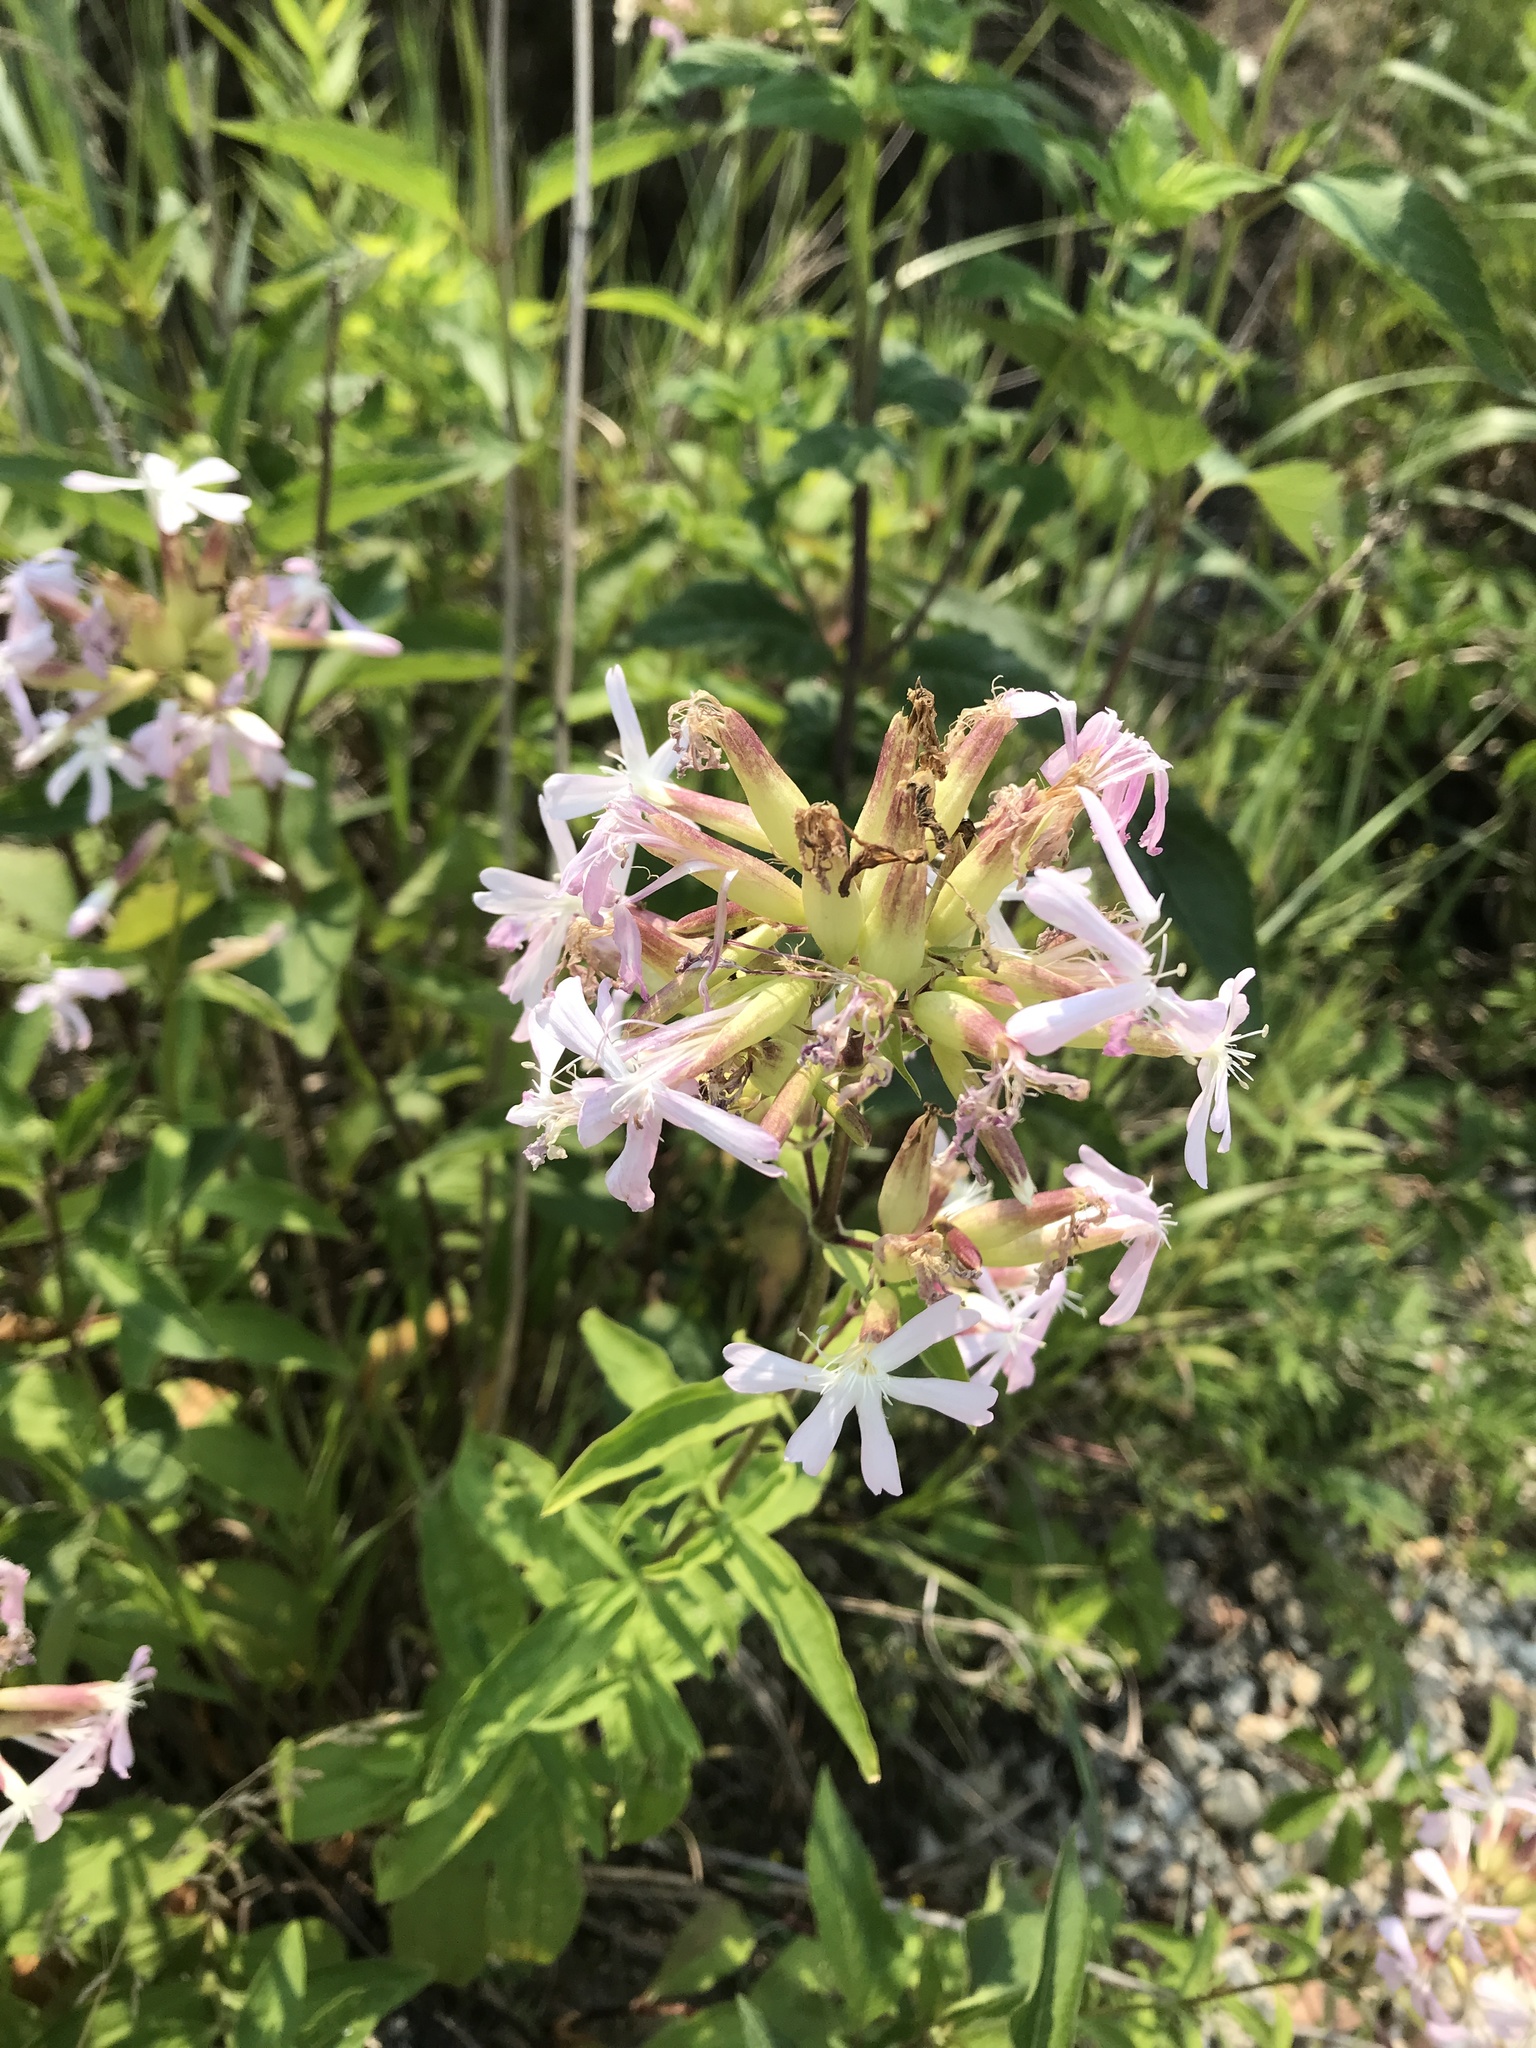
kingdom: Plantae
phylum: Tracheophyta
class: Magnoliopsida
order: Caryophyllales
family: Caryophyllaceae
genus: Saponaria
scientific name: Saponaria officinalis
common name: Soapwort
